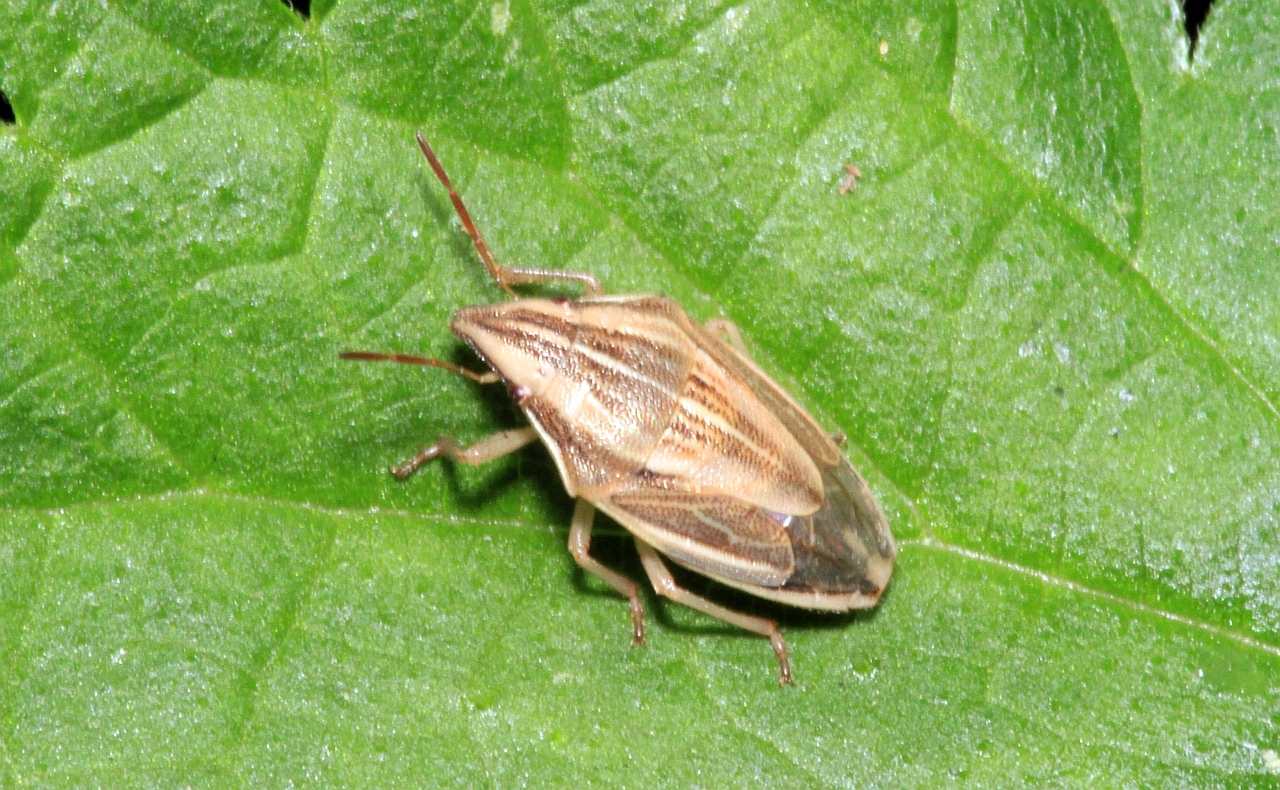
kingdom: Animalia
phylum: Arthropoda
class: Insecta
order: Hemiptera
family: Pentatomidae
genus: Aelia
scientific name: Aelia acuminata
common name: Bishop's mitre
